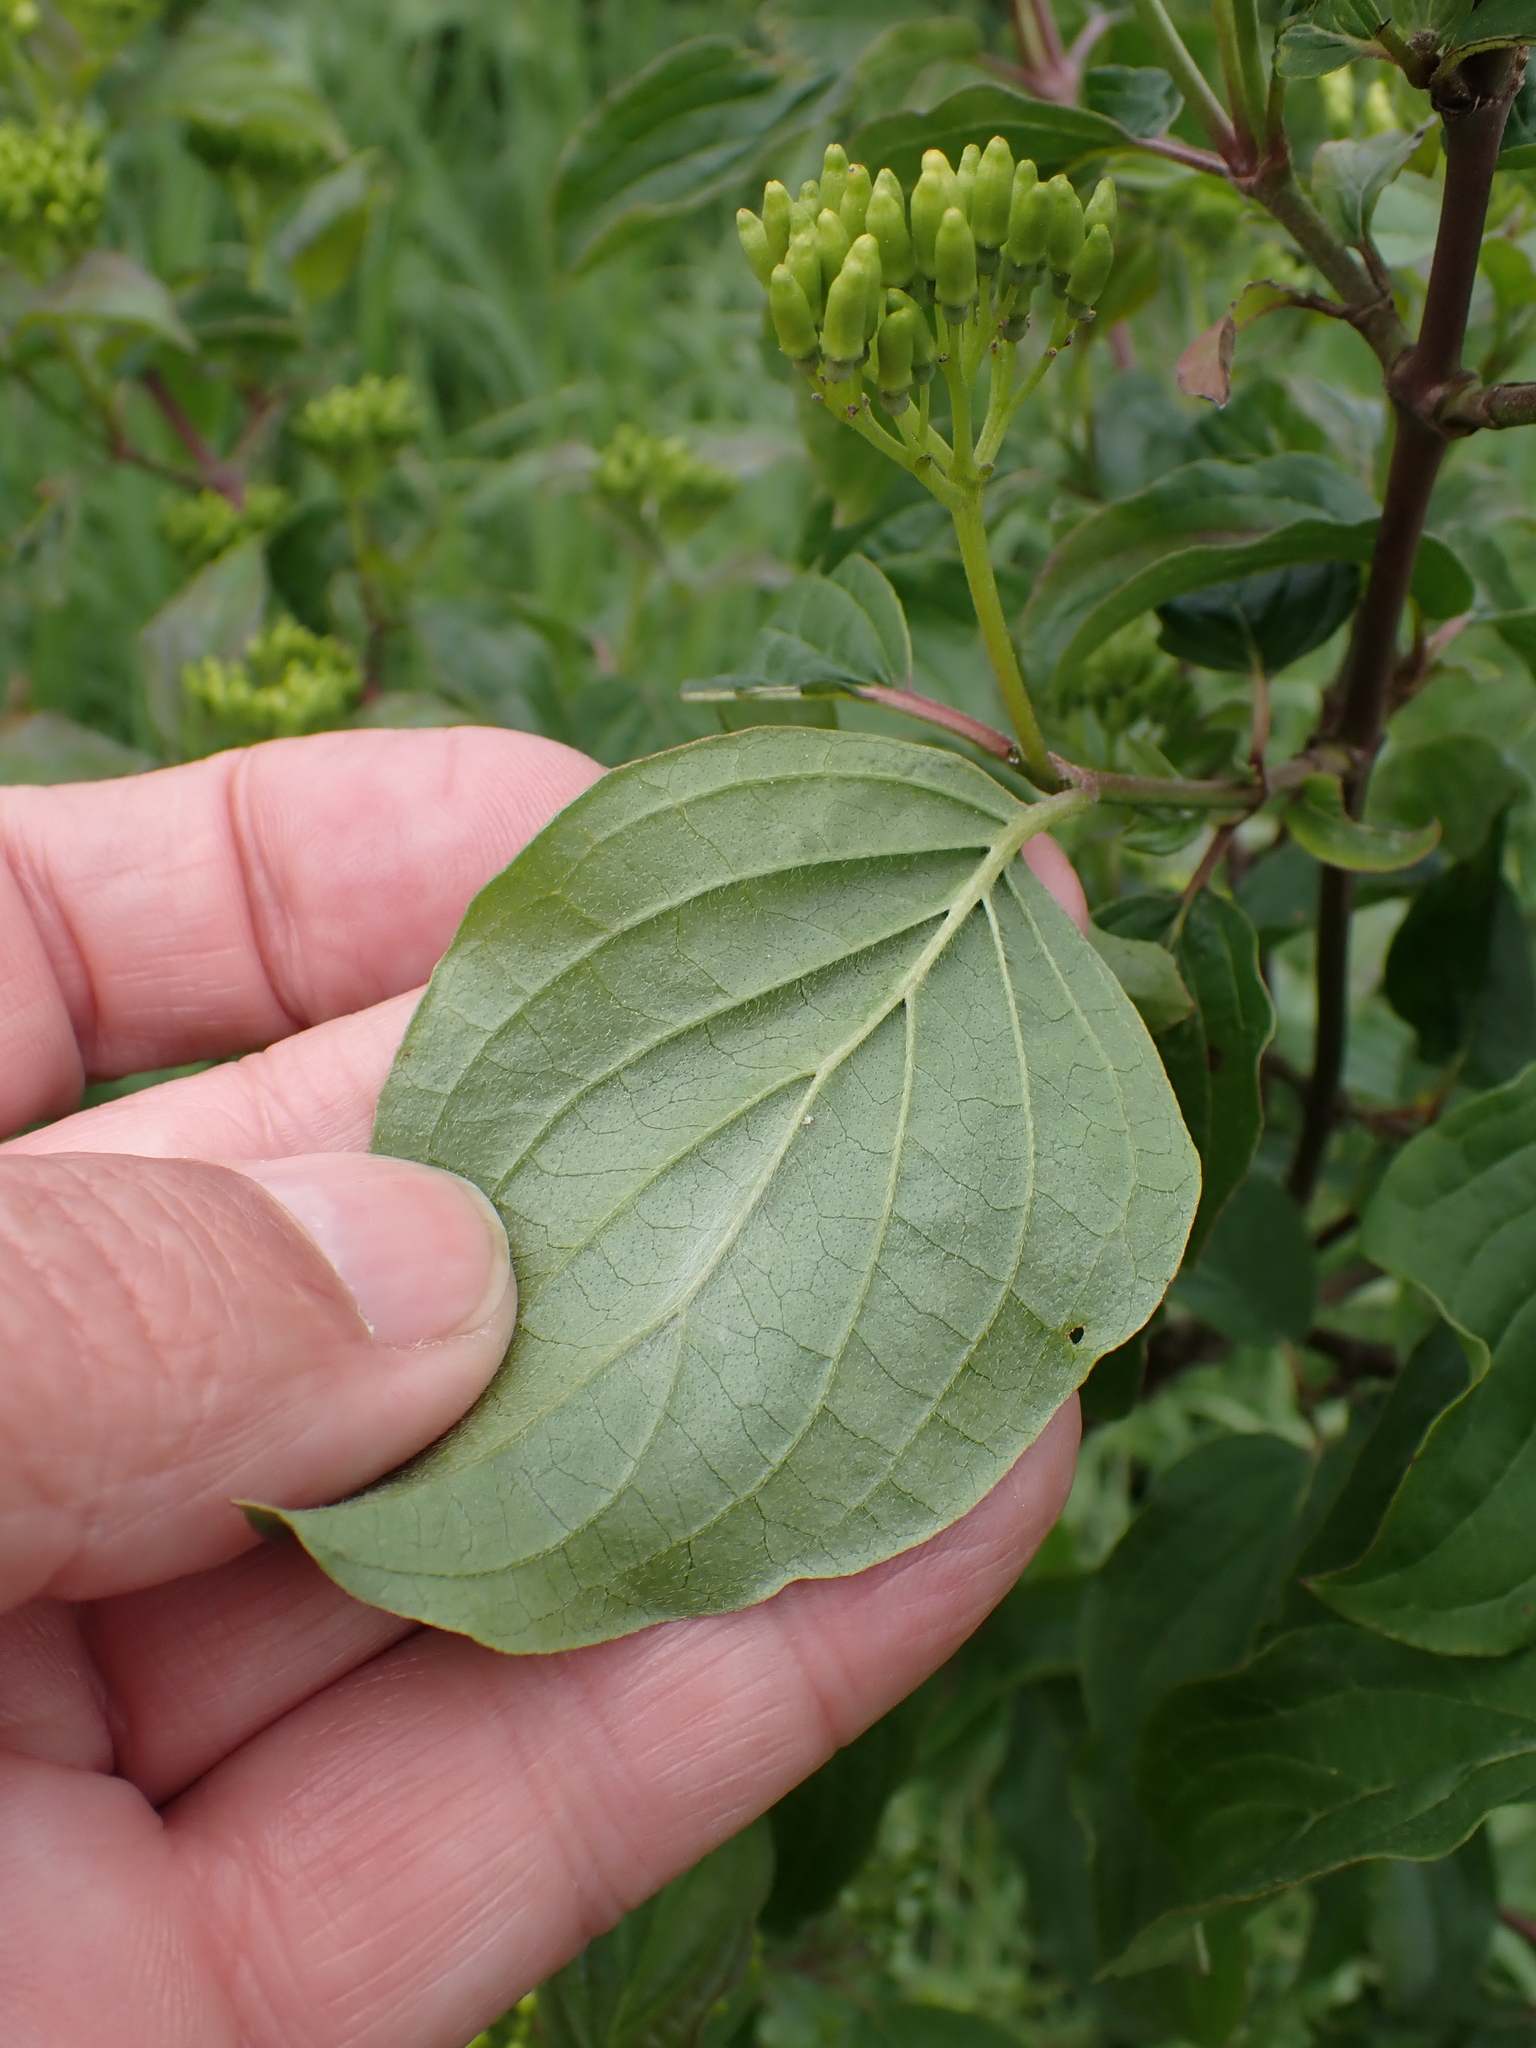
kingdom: Plantae
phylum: Tracheophyta
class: Magnoliopsida
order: Cornales
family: Cornaceae
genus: Cornus
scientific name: Cornus sanguinea
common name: Dogwood
